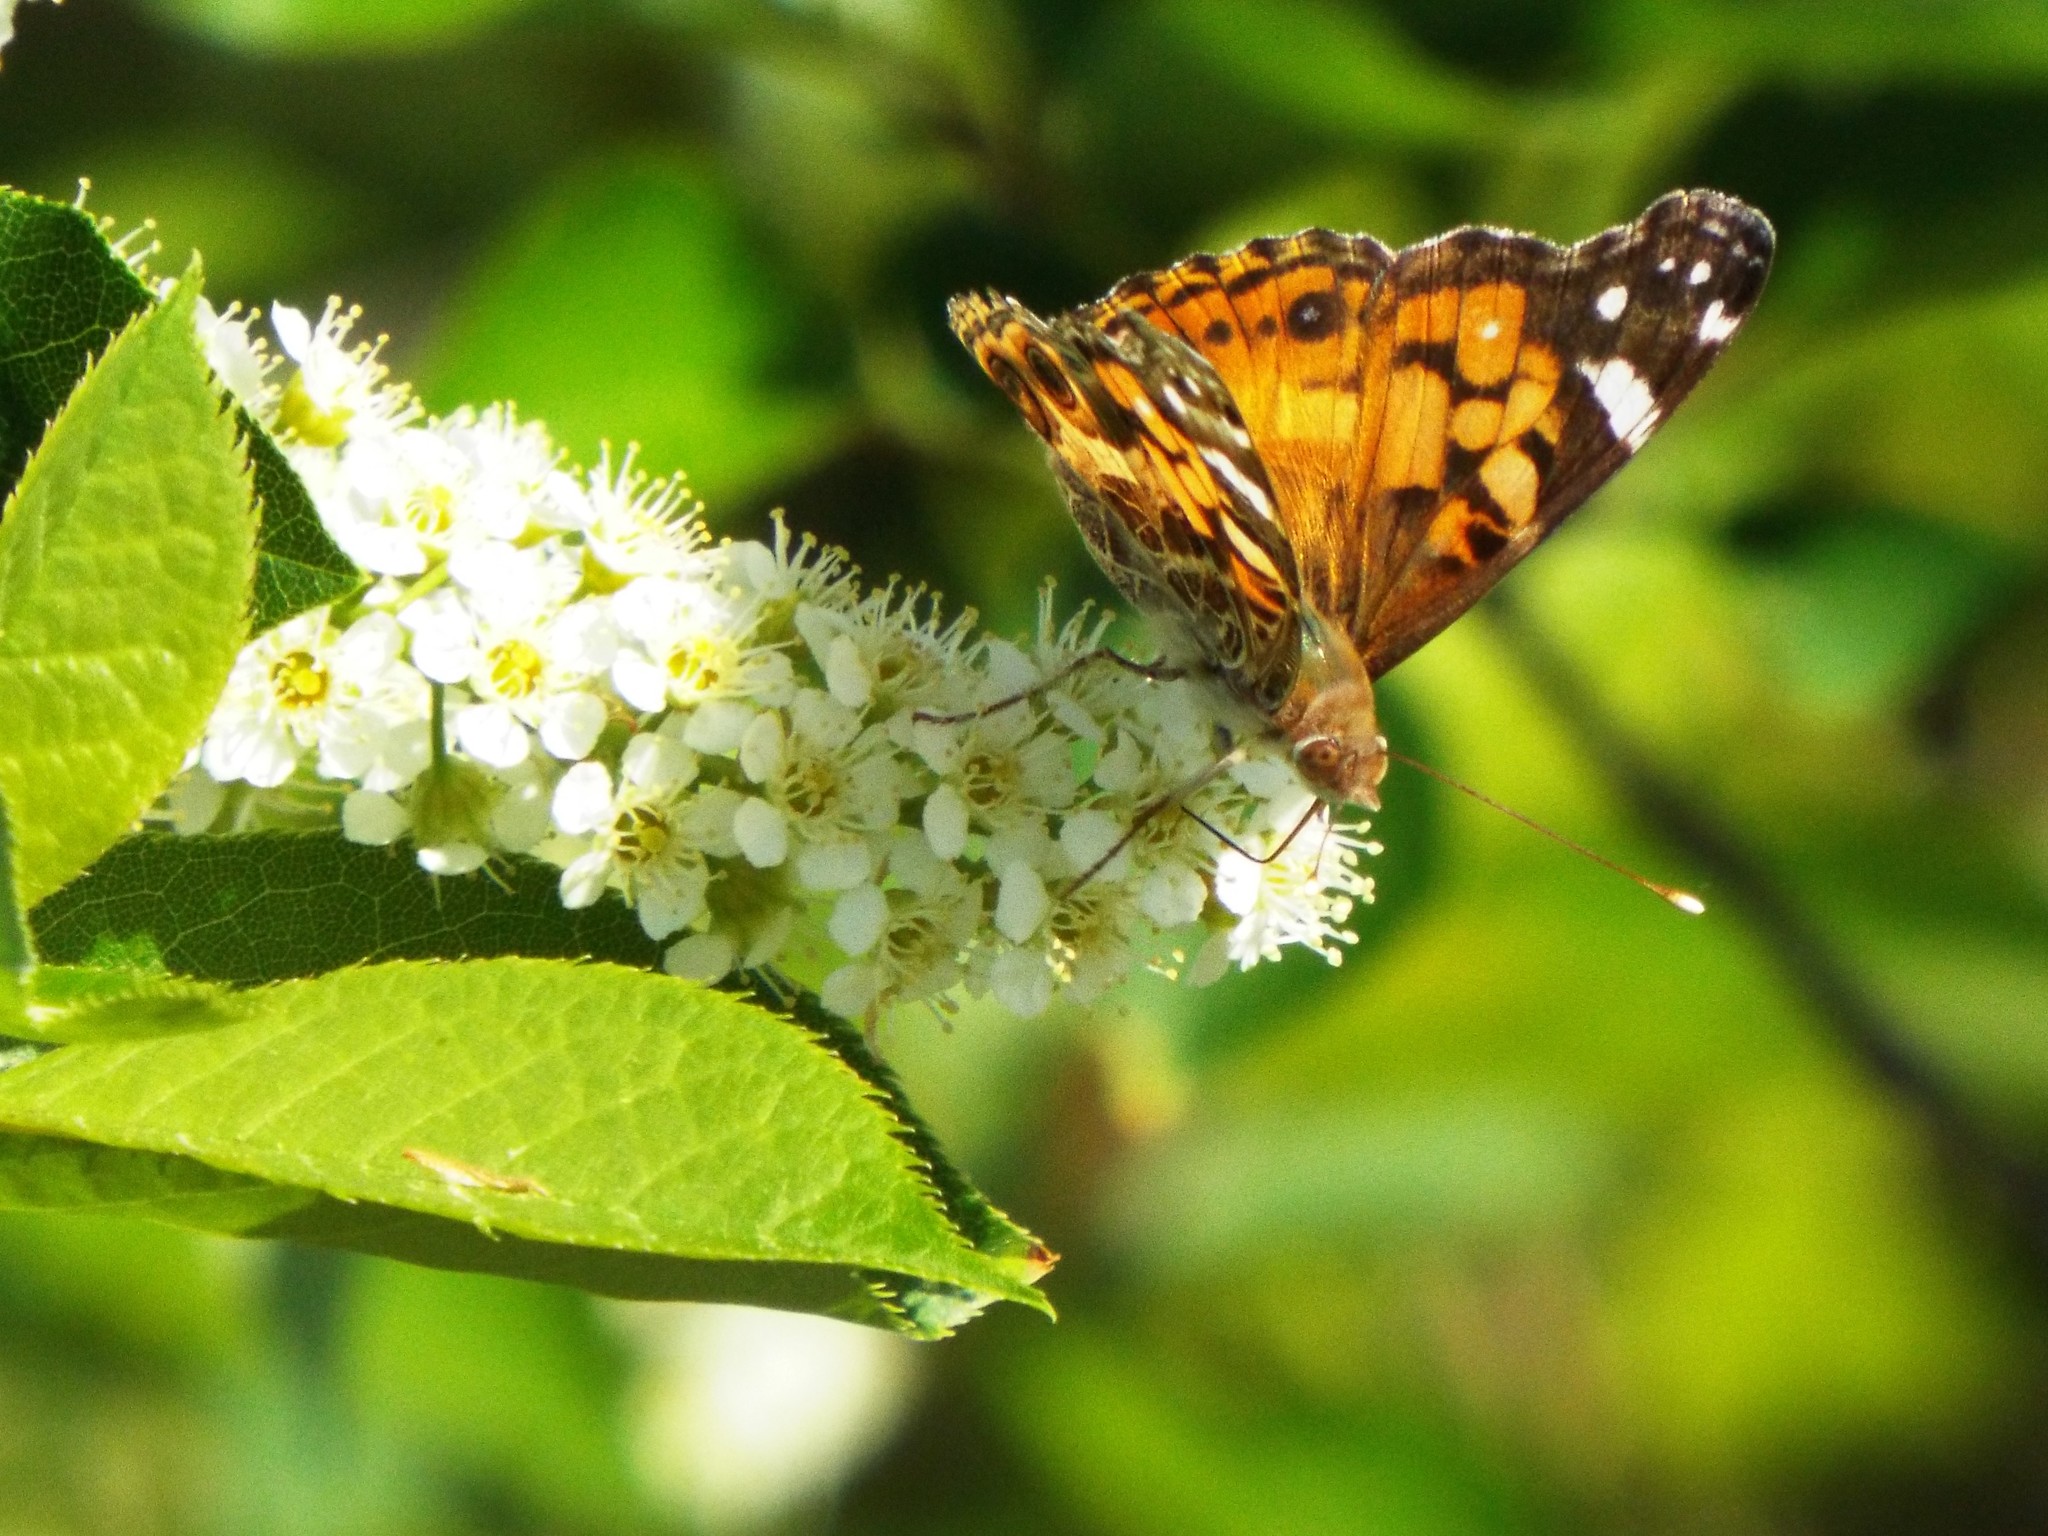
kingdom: Animalia
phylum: Arthropoda
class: Insecta
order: Lepidoptera
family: Nymphalidae
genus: Vanessa
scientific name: Vanessa virginiensis
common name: American lady
